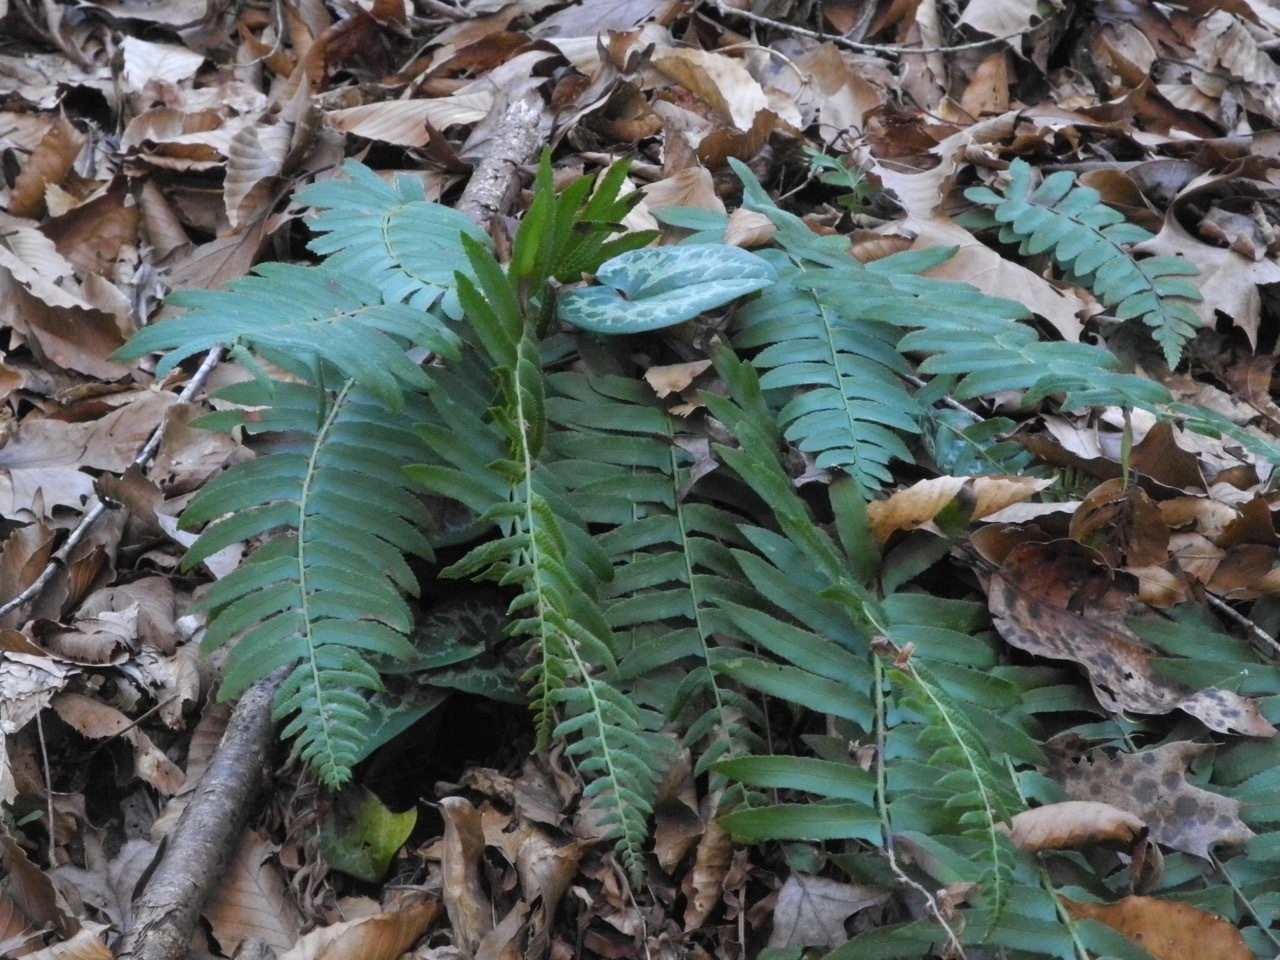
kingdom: Plantae
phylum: Tracheophyta
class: Polypodiopsida
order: Polypodiales
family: Dryopteridaceae
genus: Polystichum
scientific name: Polystichum acrostichoides
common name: Christmas fern
